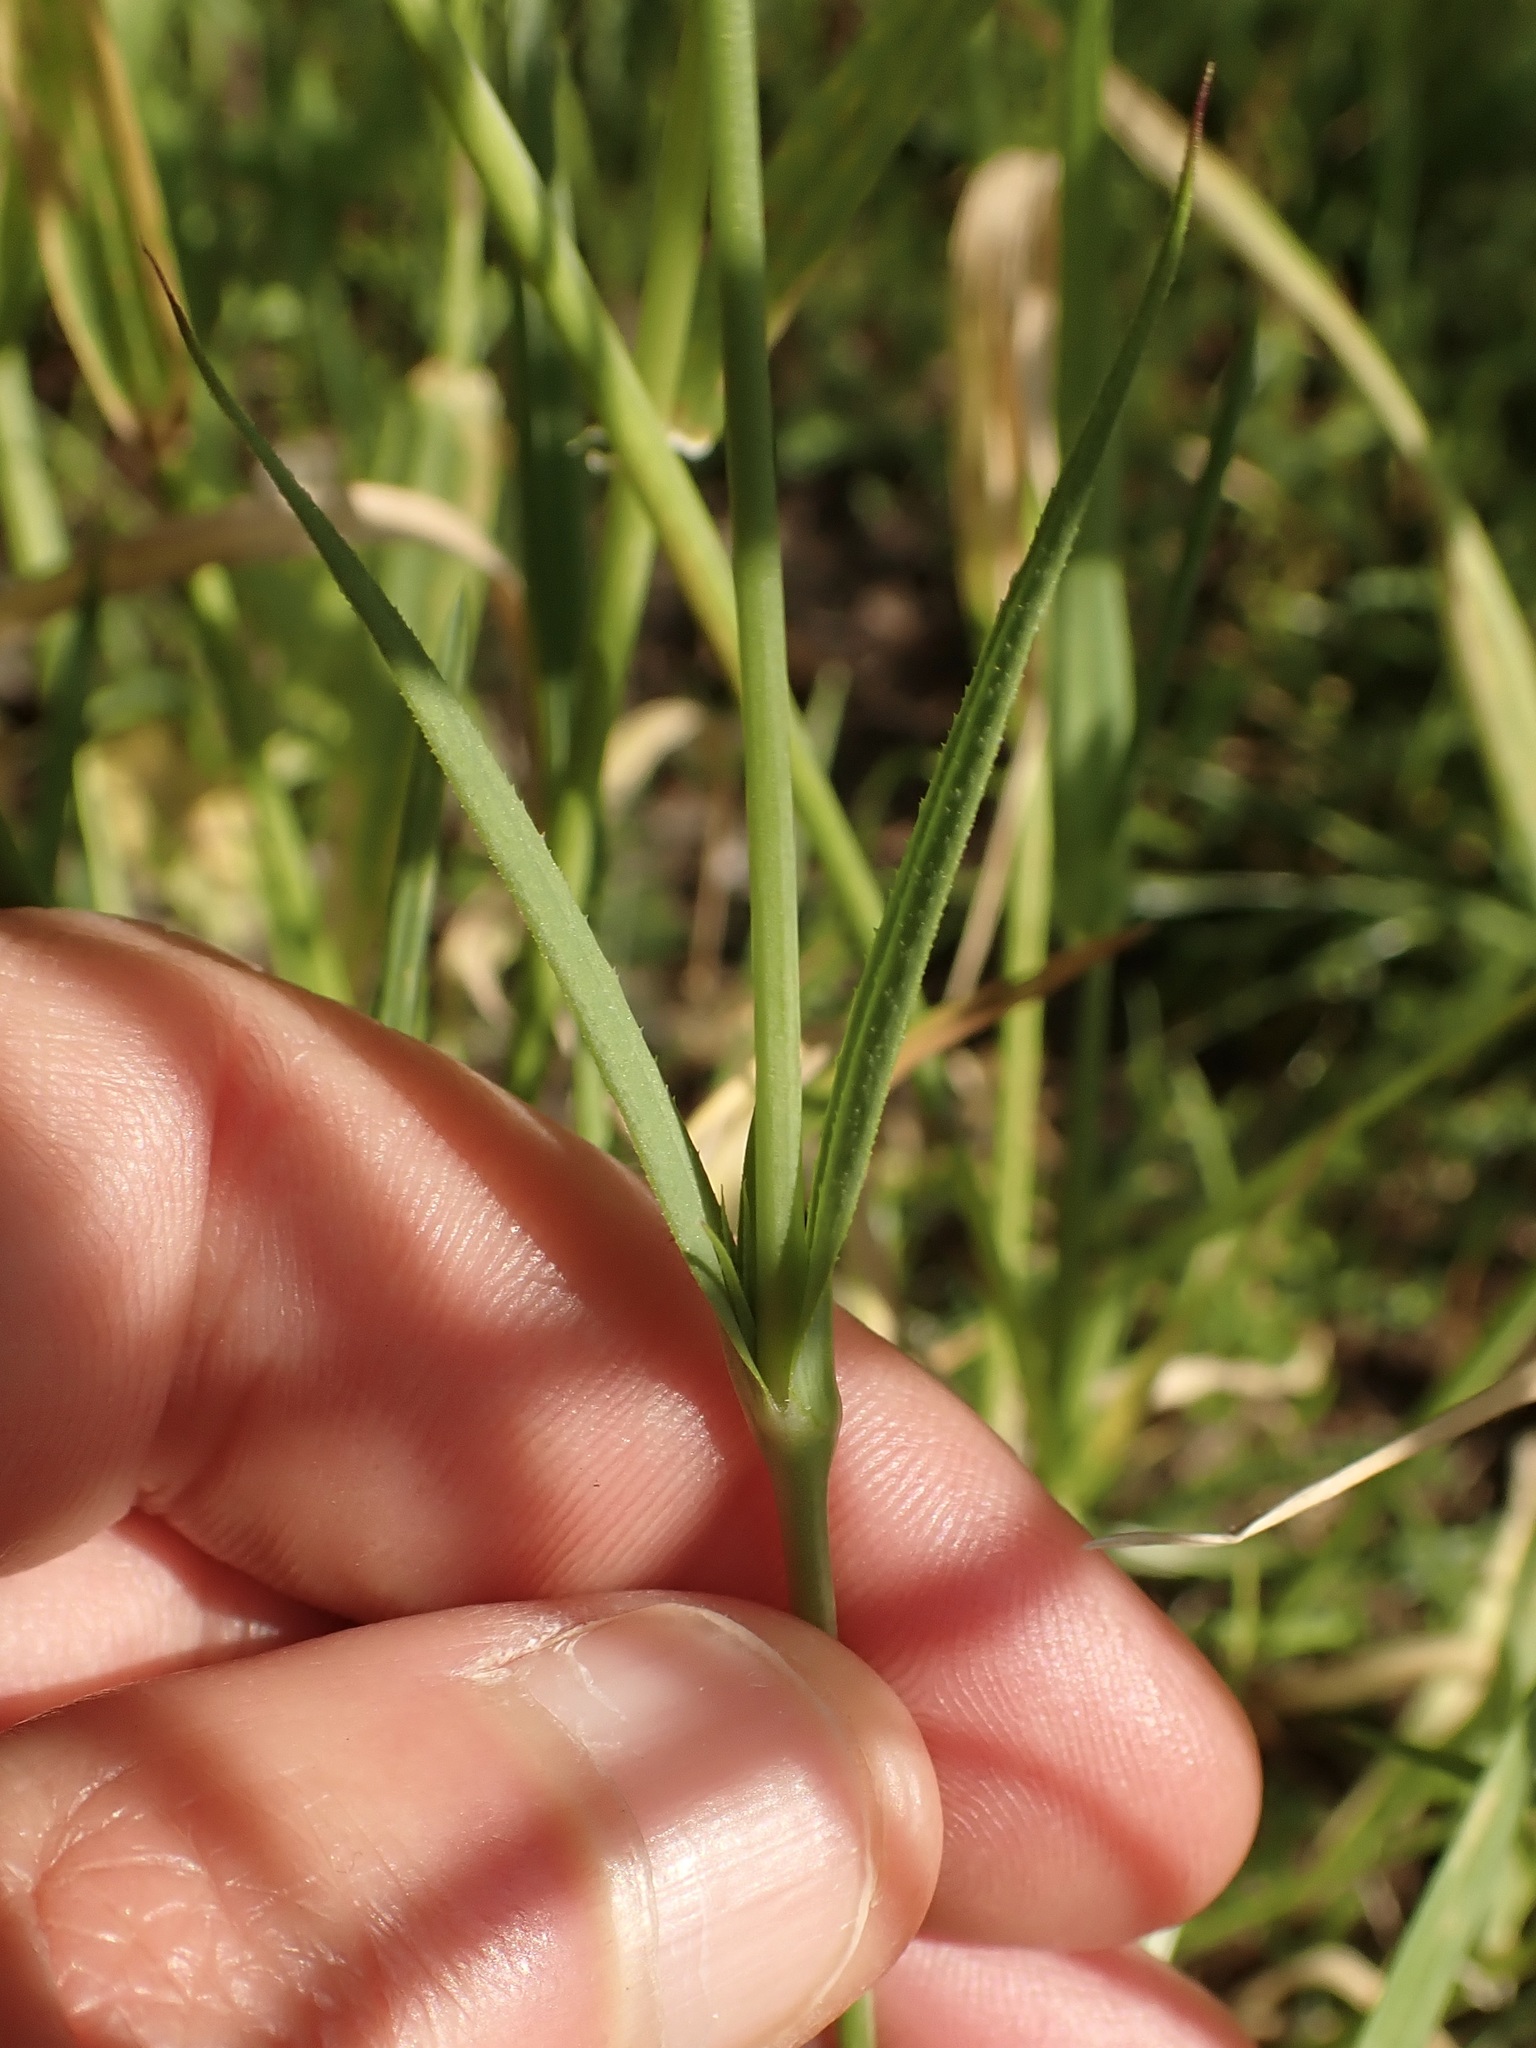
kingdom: Plantae
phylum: Tracheophyta
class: Magnoliopsida
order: Caryophyllales
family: Caryophyllaceae
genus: Eudianthe
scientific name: Eudianthe coeli-rosa
